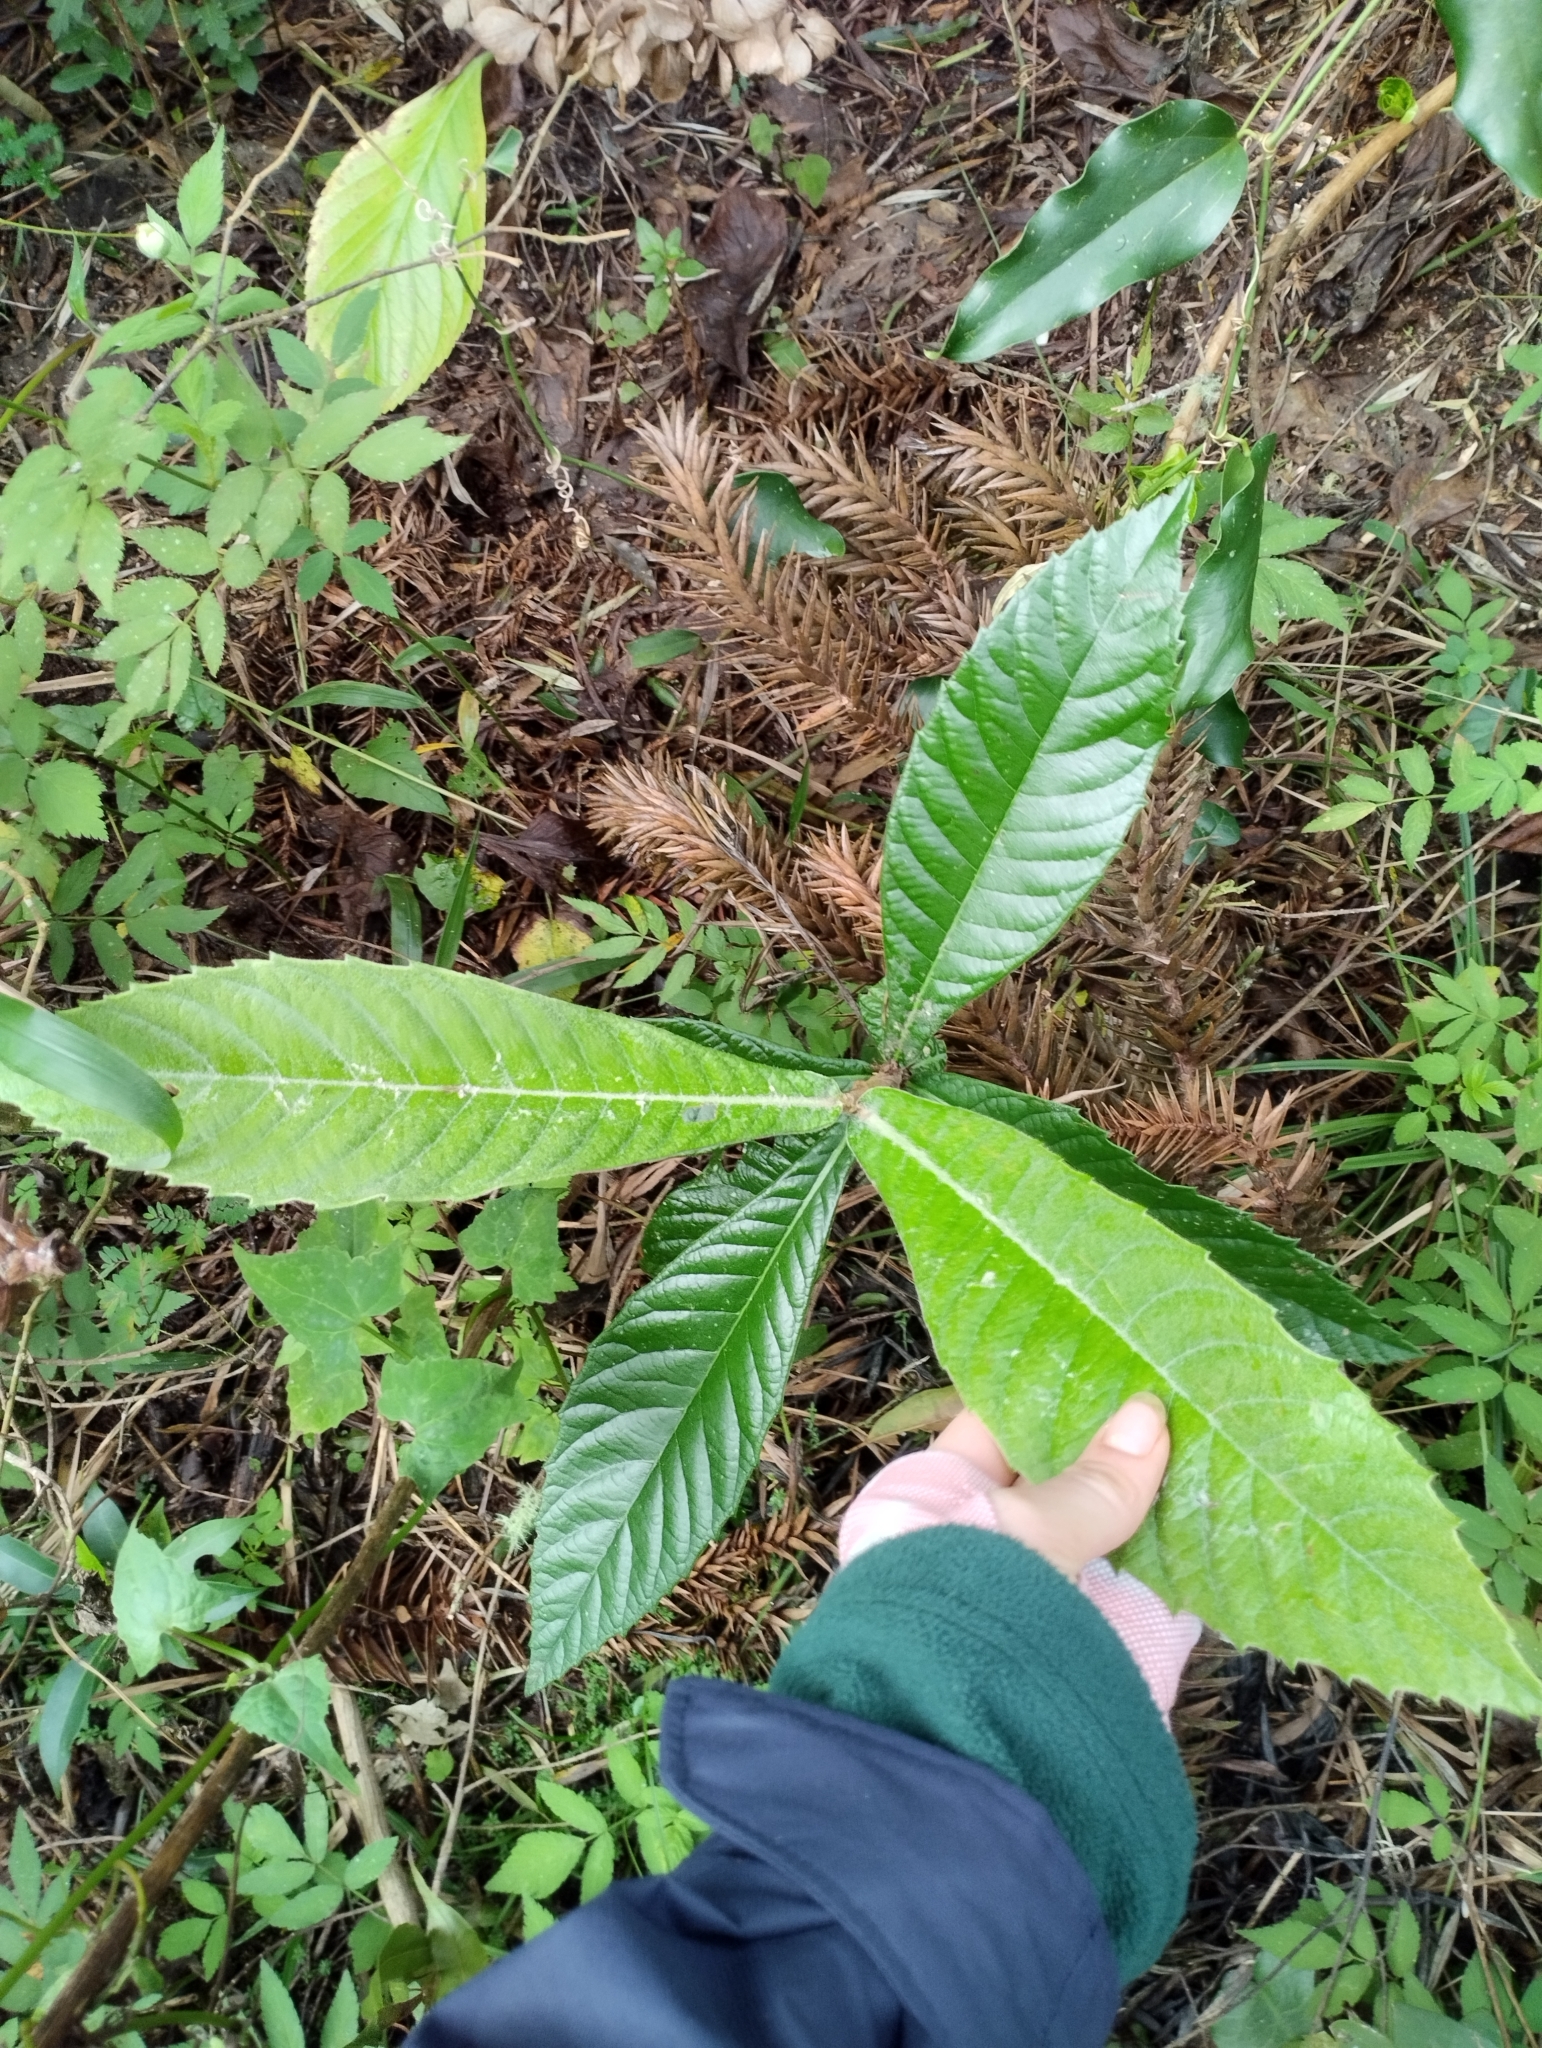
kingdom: Plantae
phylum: Tracheophyta
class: Magnoliopsida
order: Rosales
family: Rosaceae
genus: Rhaphiolepis
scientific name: Rhaphiolepis bibas
